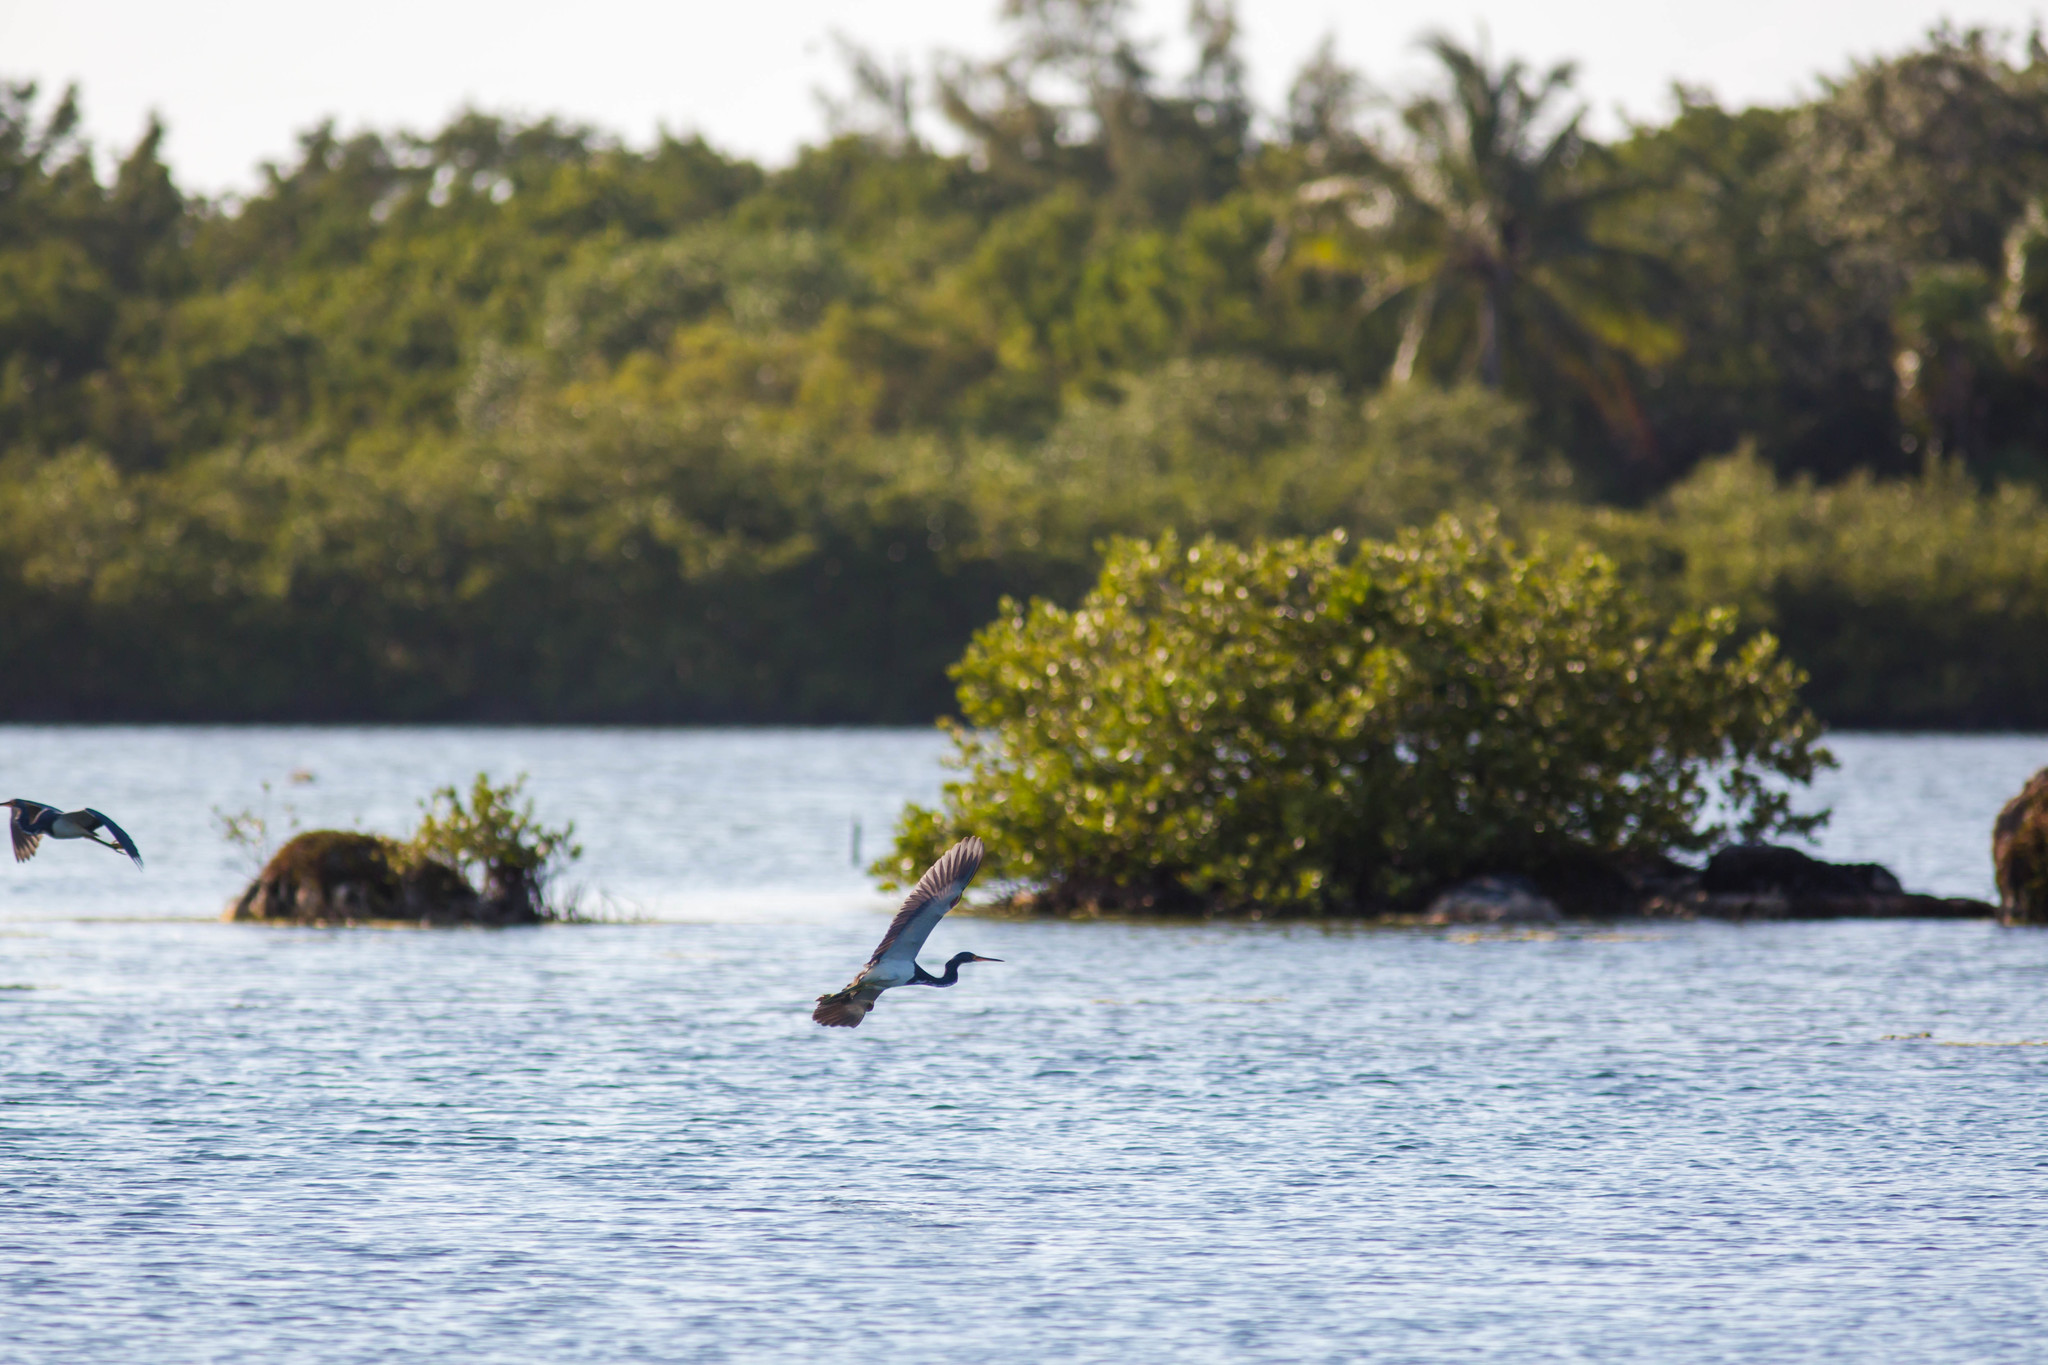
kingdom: Animalia
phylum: Chordata
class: Aves
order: Pelecaniformes
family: Ardeidae
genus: Egretta
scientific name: Egretta tricolor
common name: Tricolored heron
